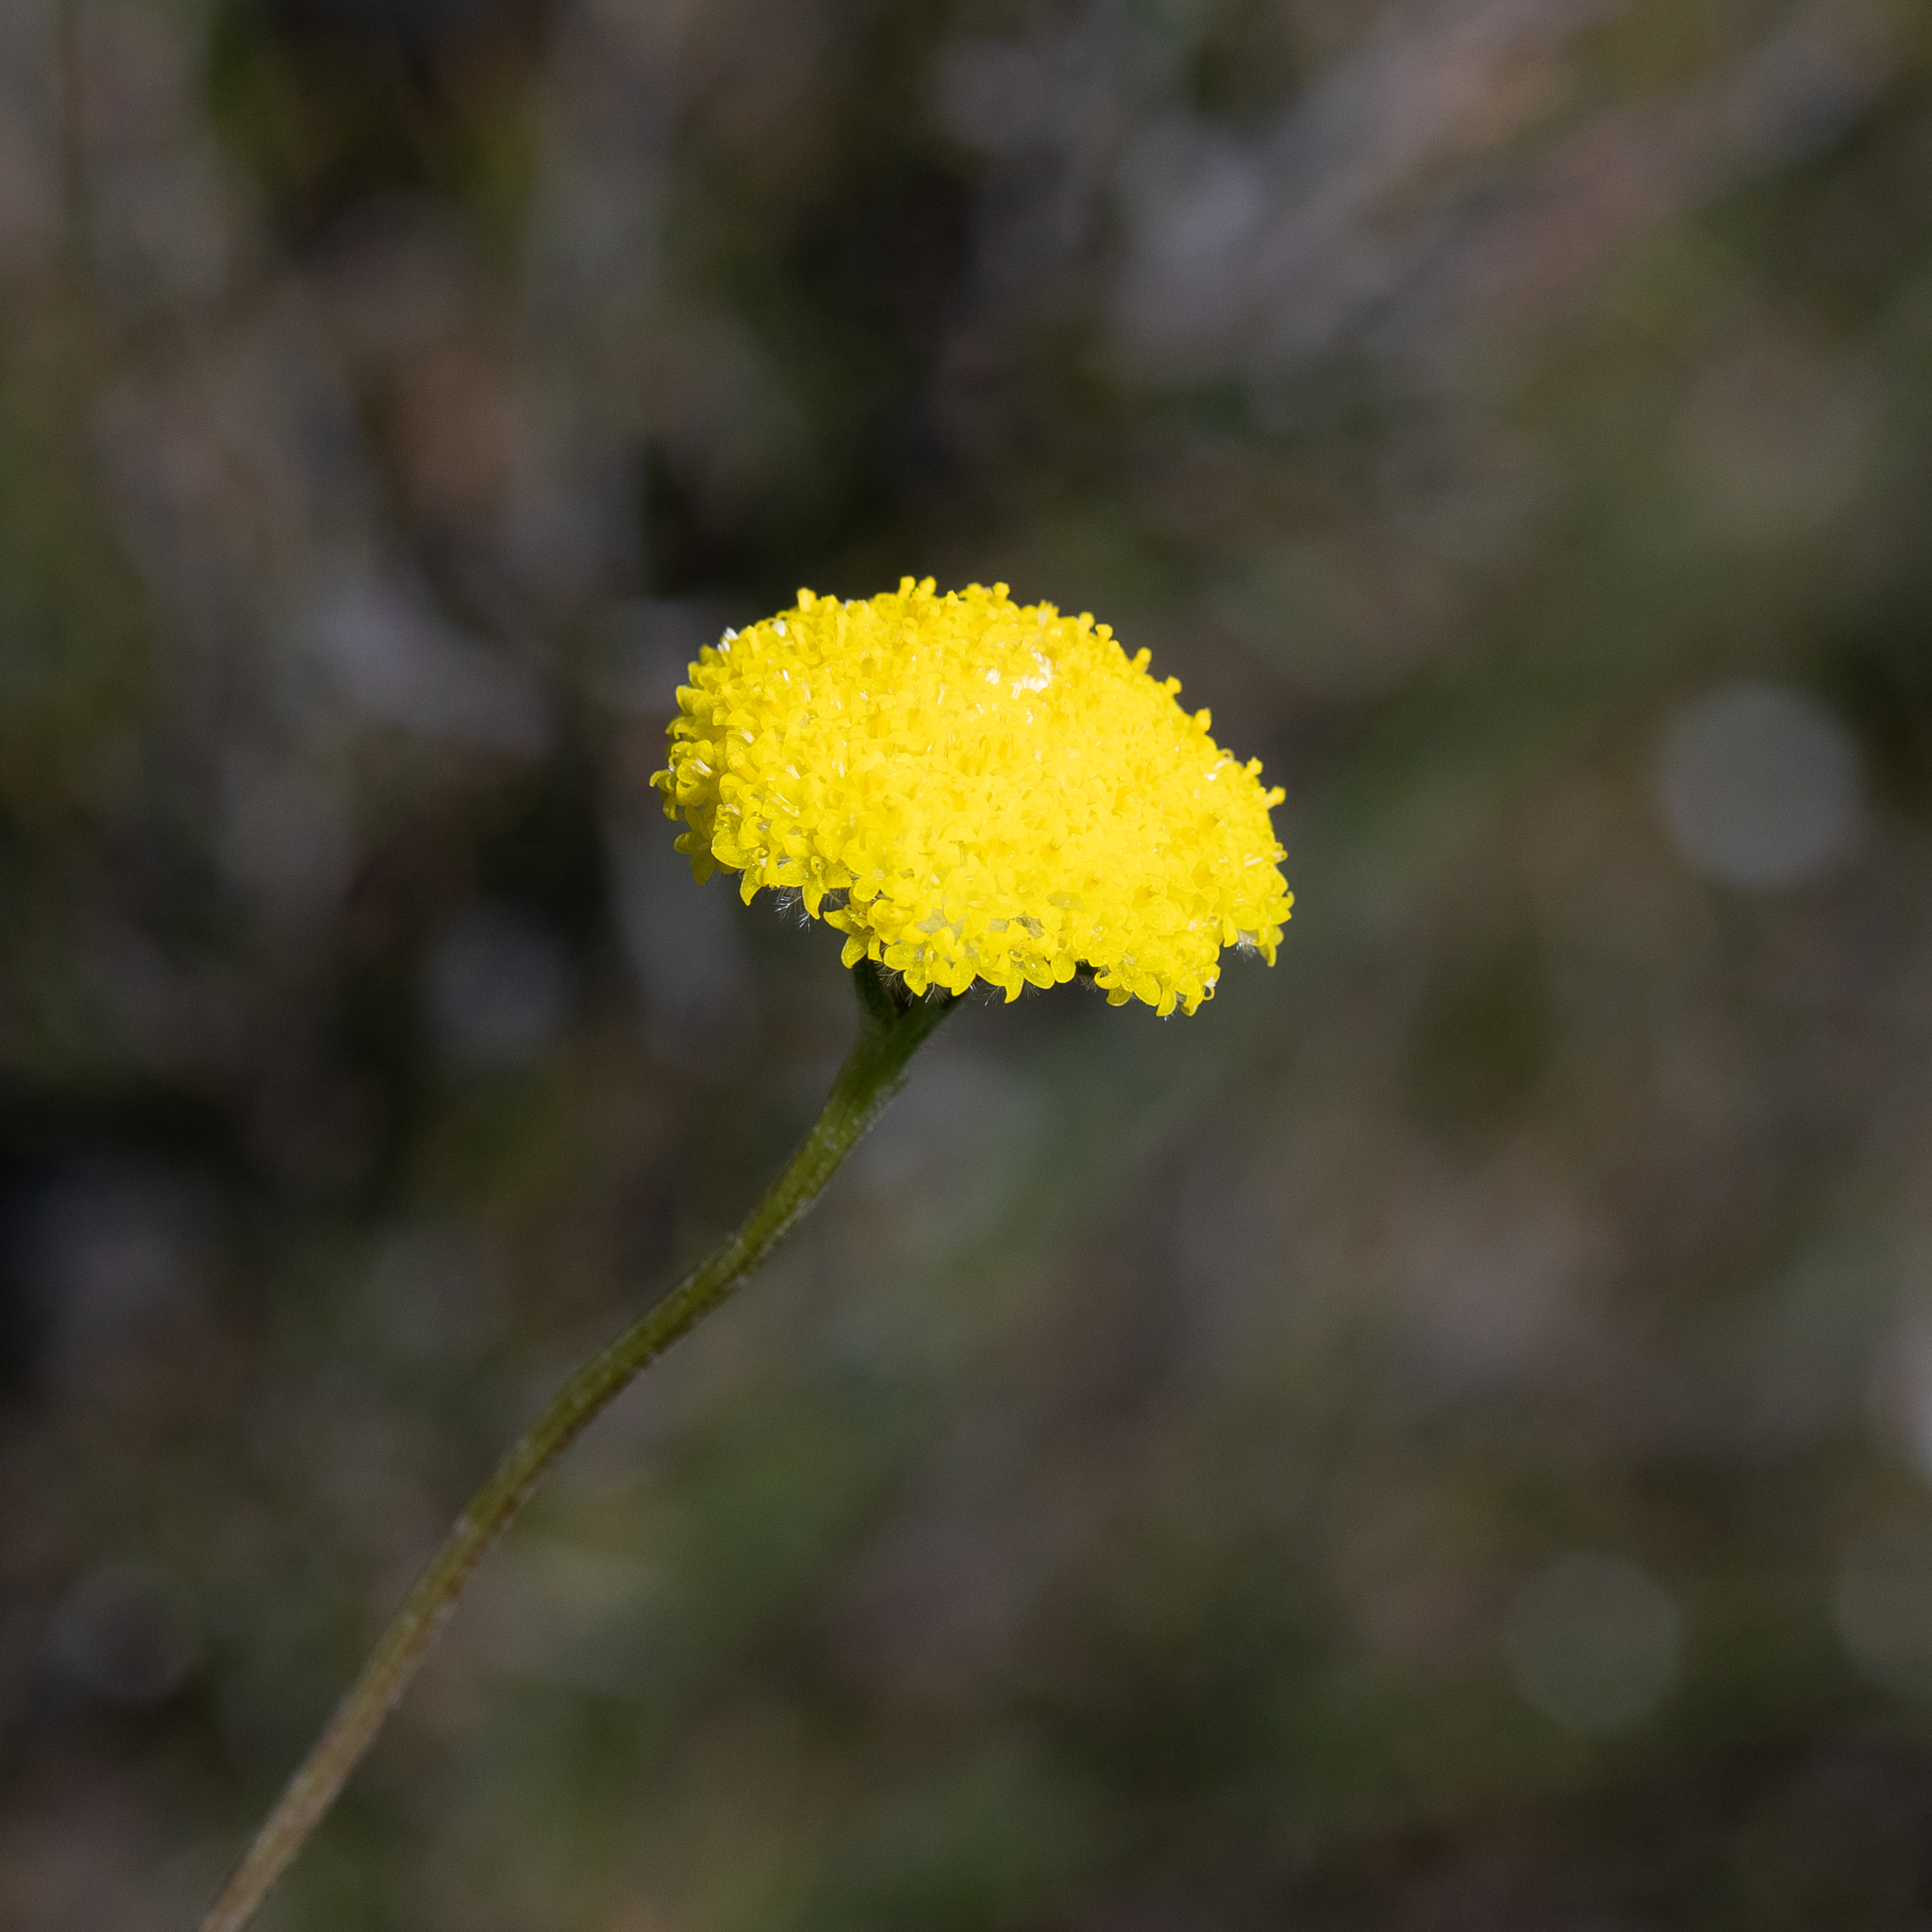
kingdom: Plantae
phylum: Tracheophyta
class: Magnoliopsida
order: Asterales
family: Asteraceae
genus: Craspedia
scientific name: Craspedia variabilis
